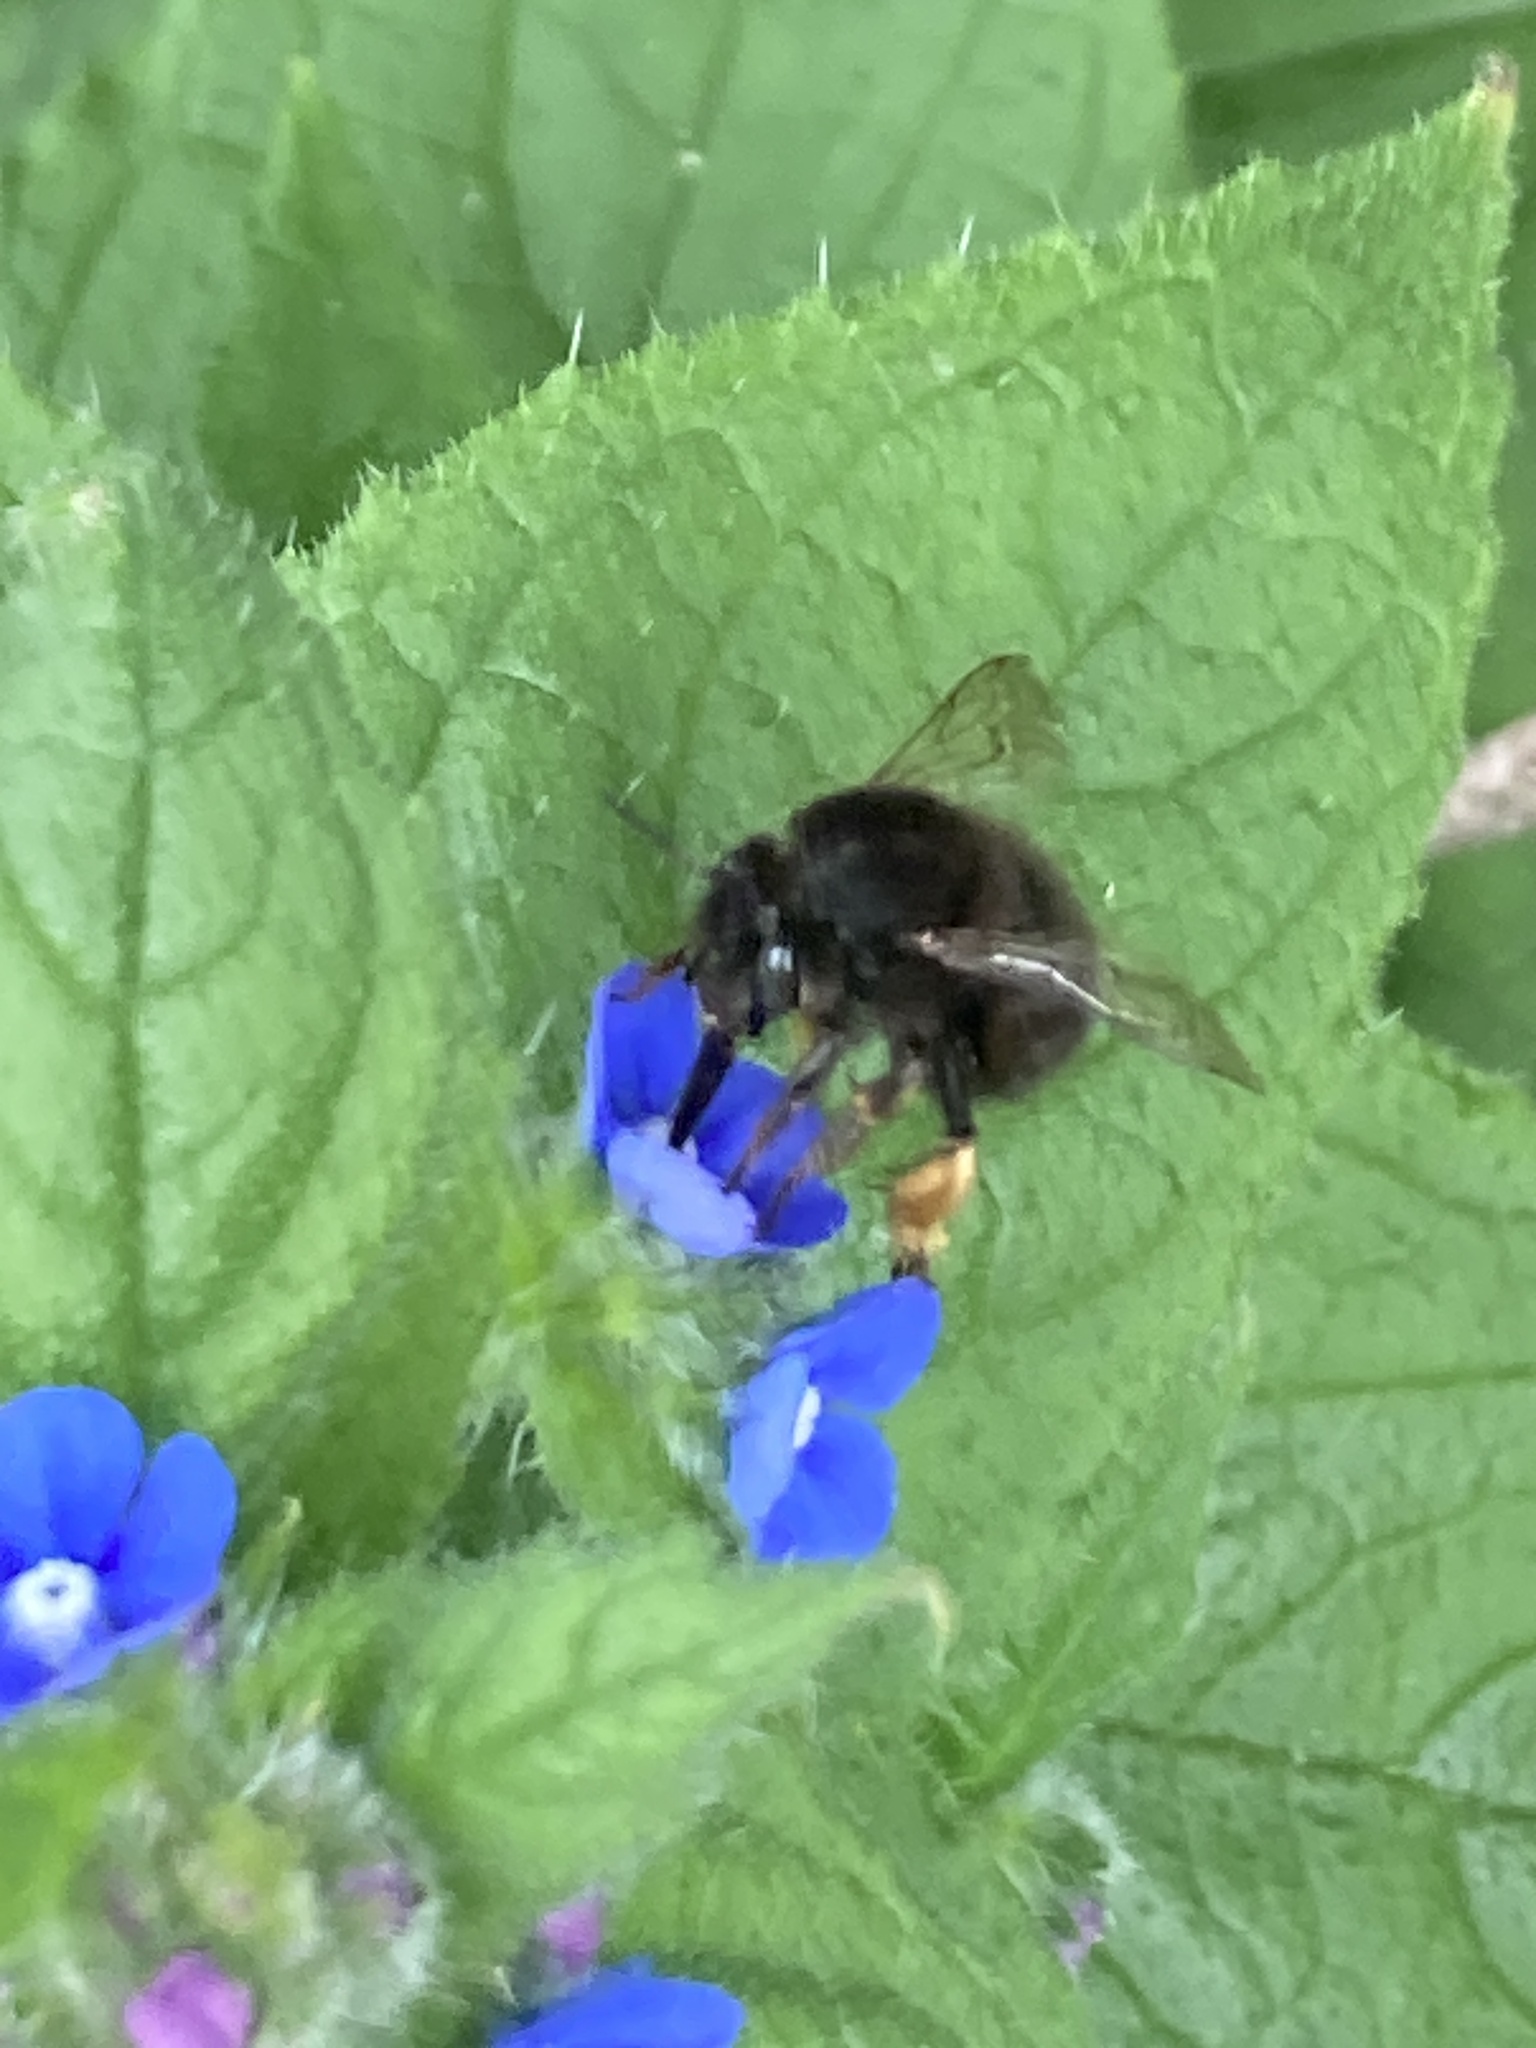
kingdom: Animalia
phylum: Arthropoda
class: Insecta
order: Hymenoptera
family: Apidae
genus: Anthophora
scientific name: Anthophora plumipes
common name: Hairy-footed flower bee
